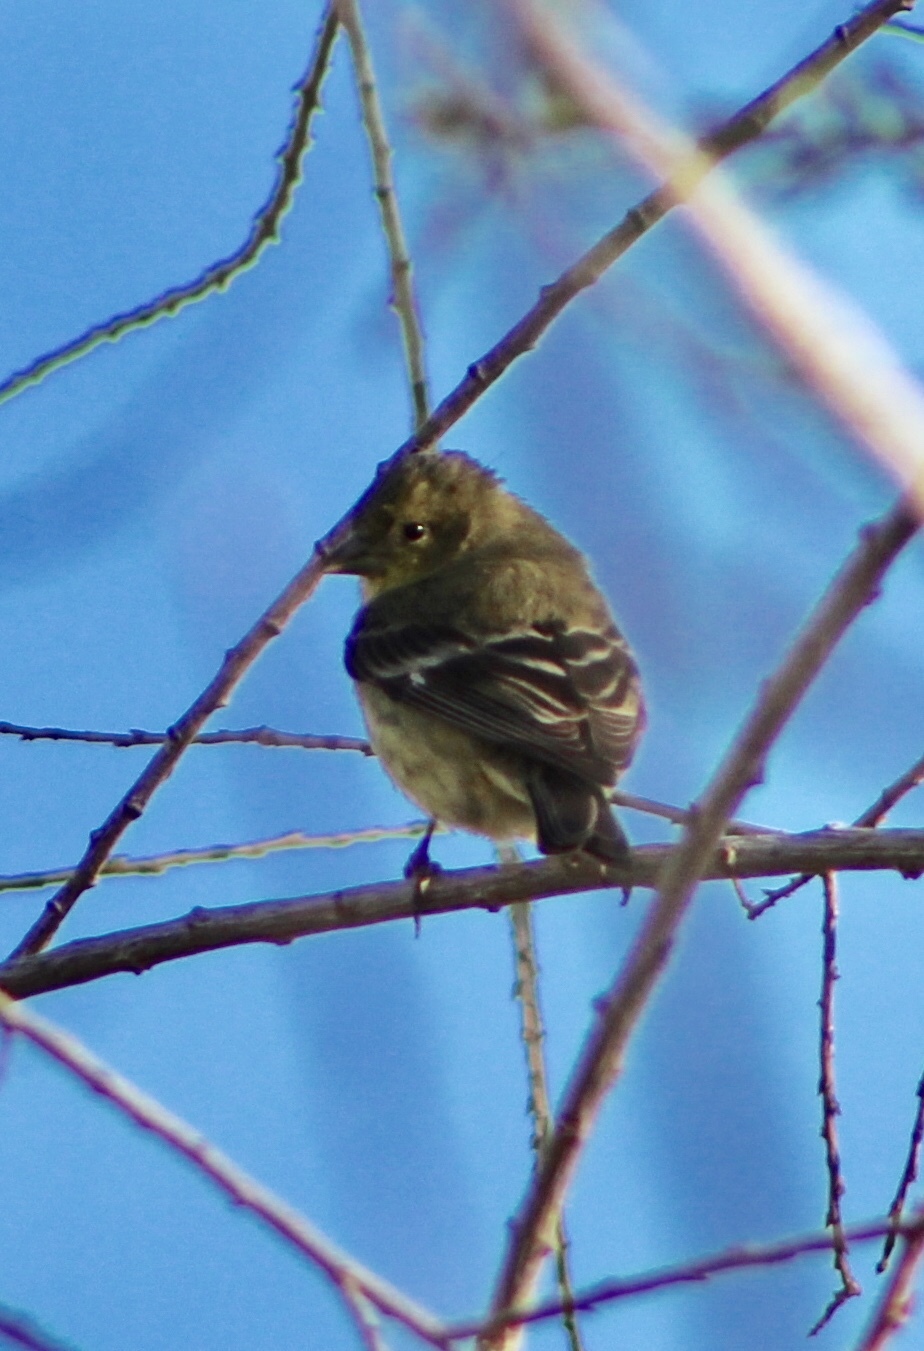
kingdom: Animalia
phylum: Chordata
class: Aves
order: Passeriformes
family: Fringillidae
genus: Spinus
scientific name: Spinus psaltria
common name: Lesser goldfinch
